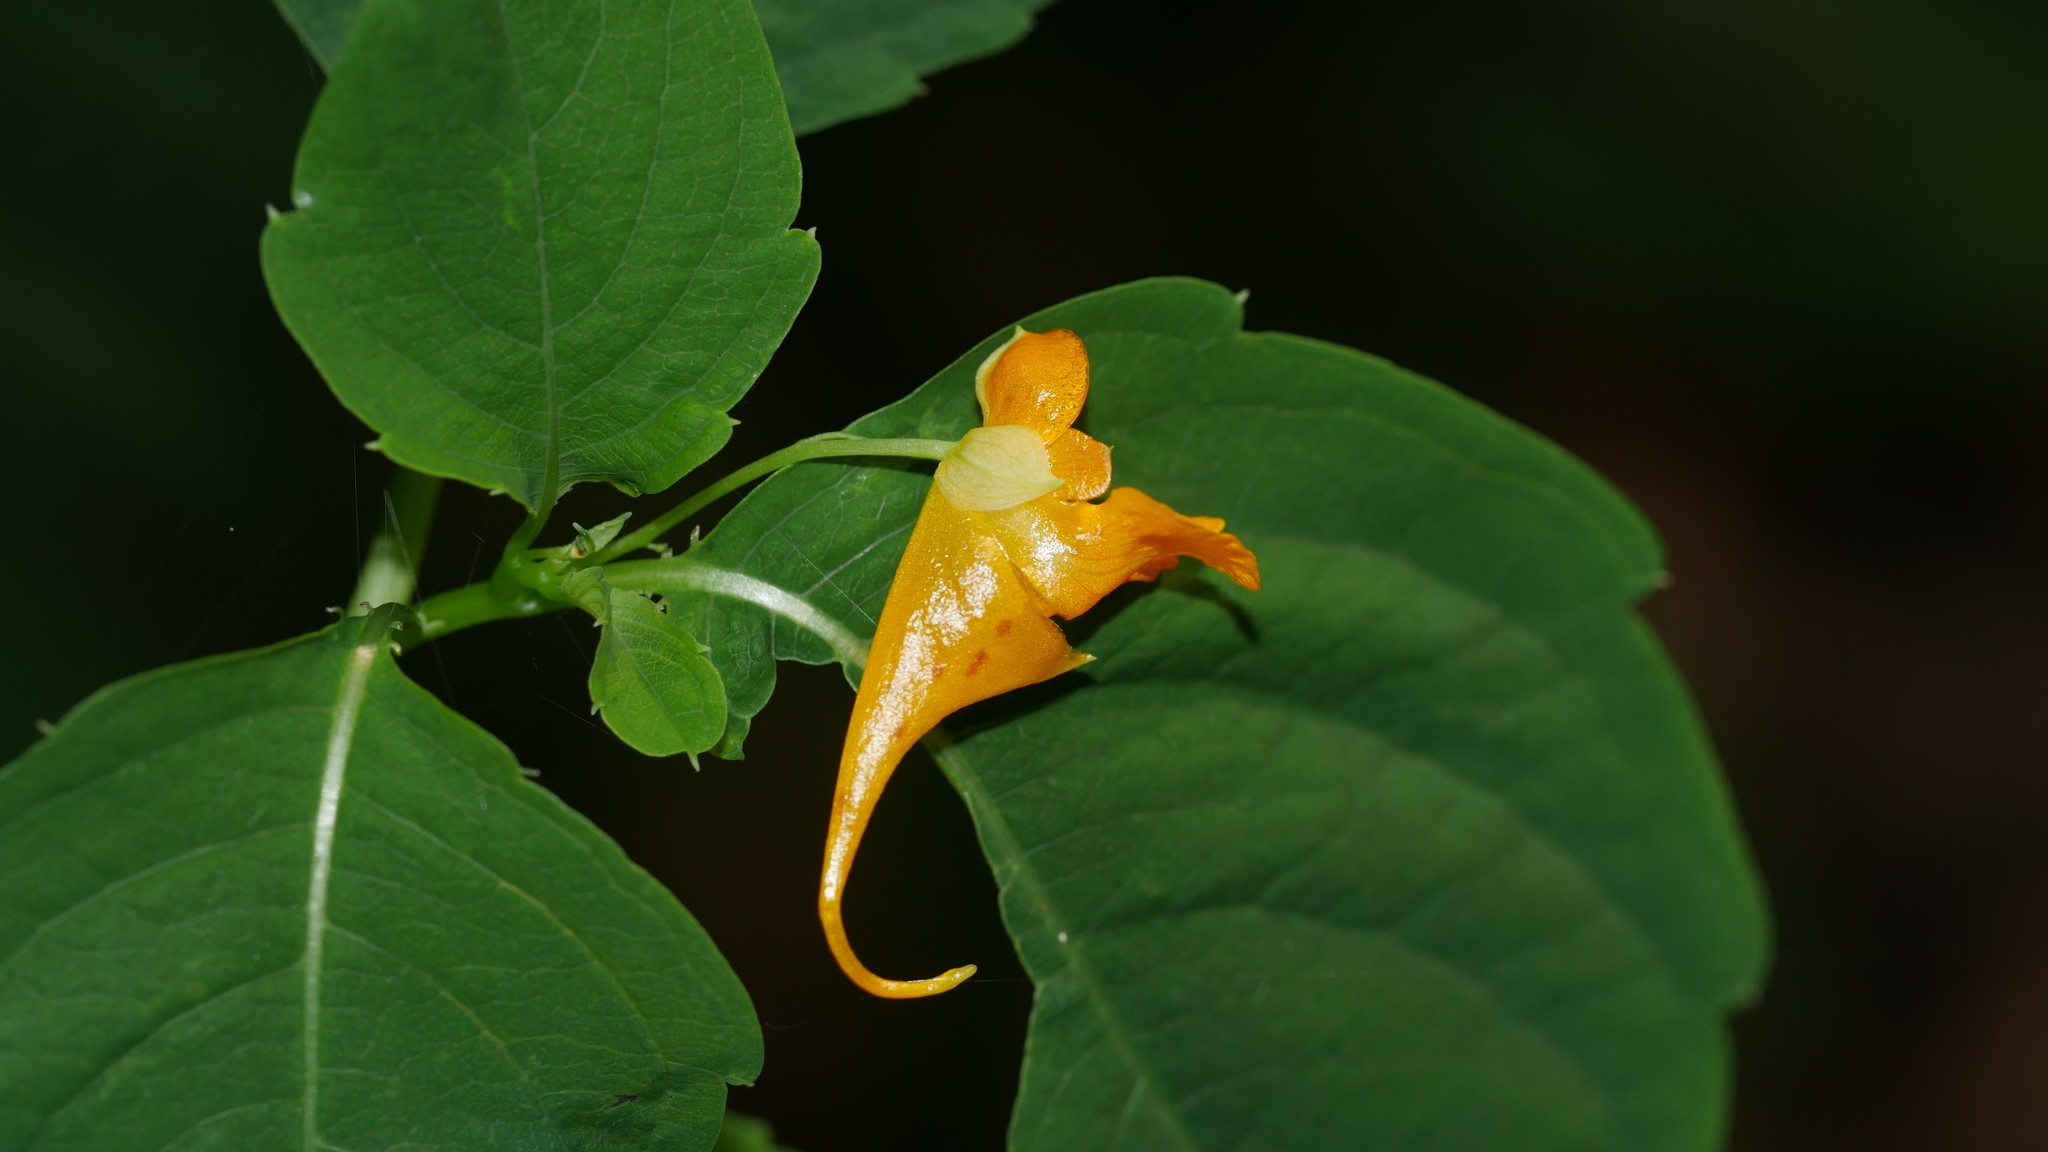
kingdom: Plantae
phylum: Tracheophyta
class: Magnoliopsida
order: Ericales
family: Balsaminaceae
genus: Impatiens
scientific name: Impatiens capensis
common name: Orange balsam
